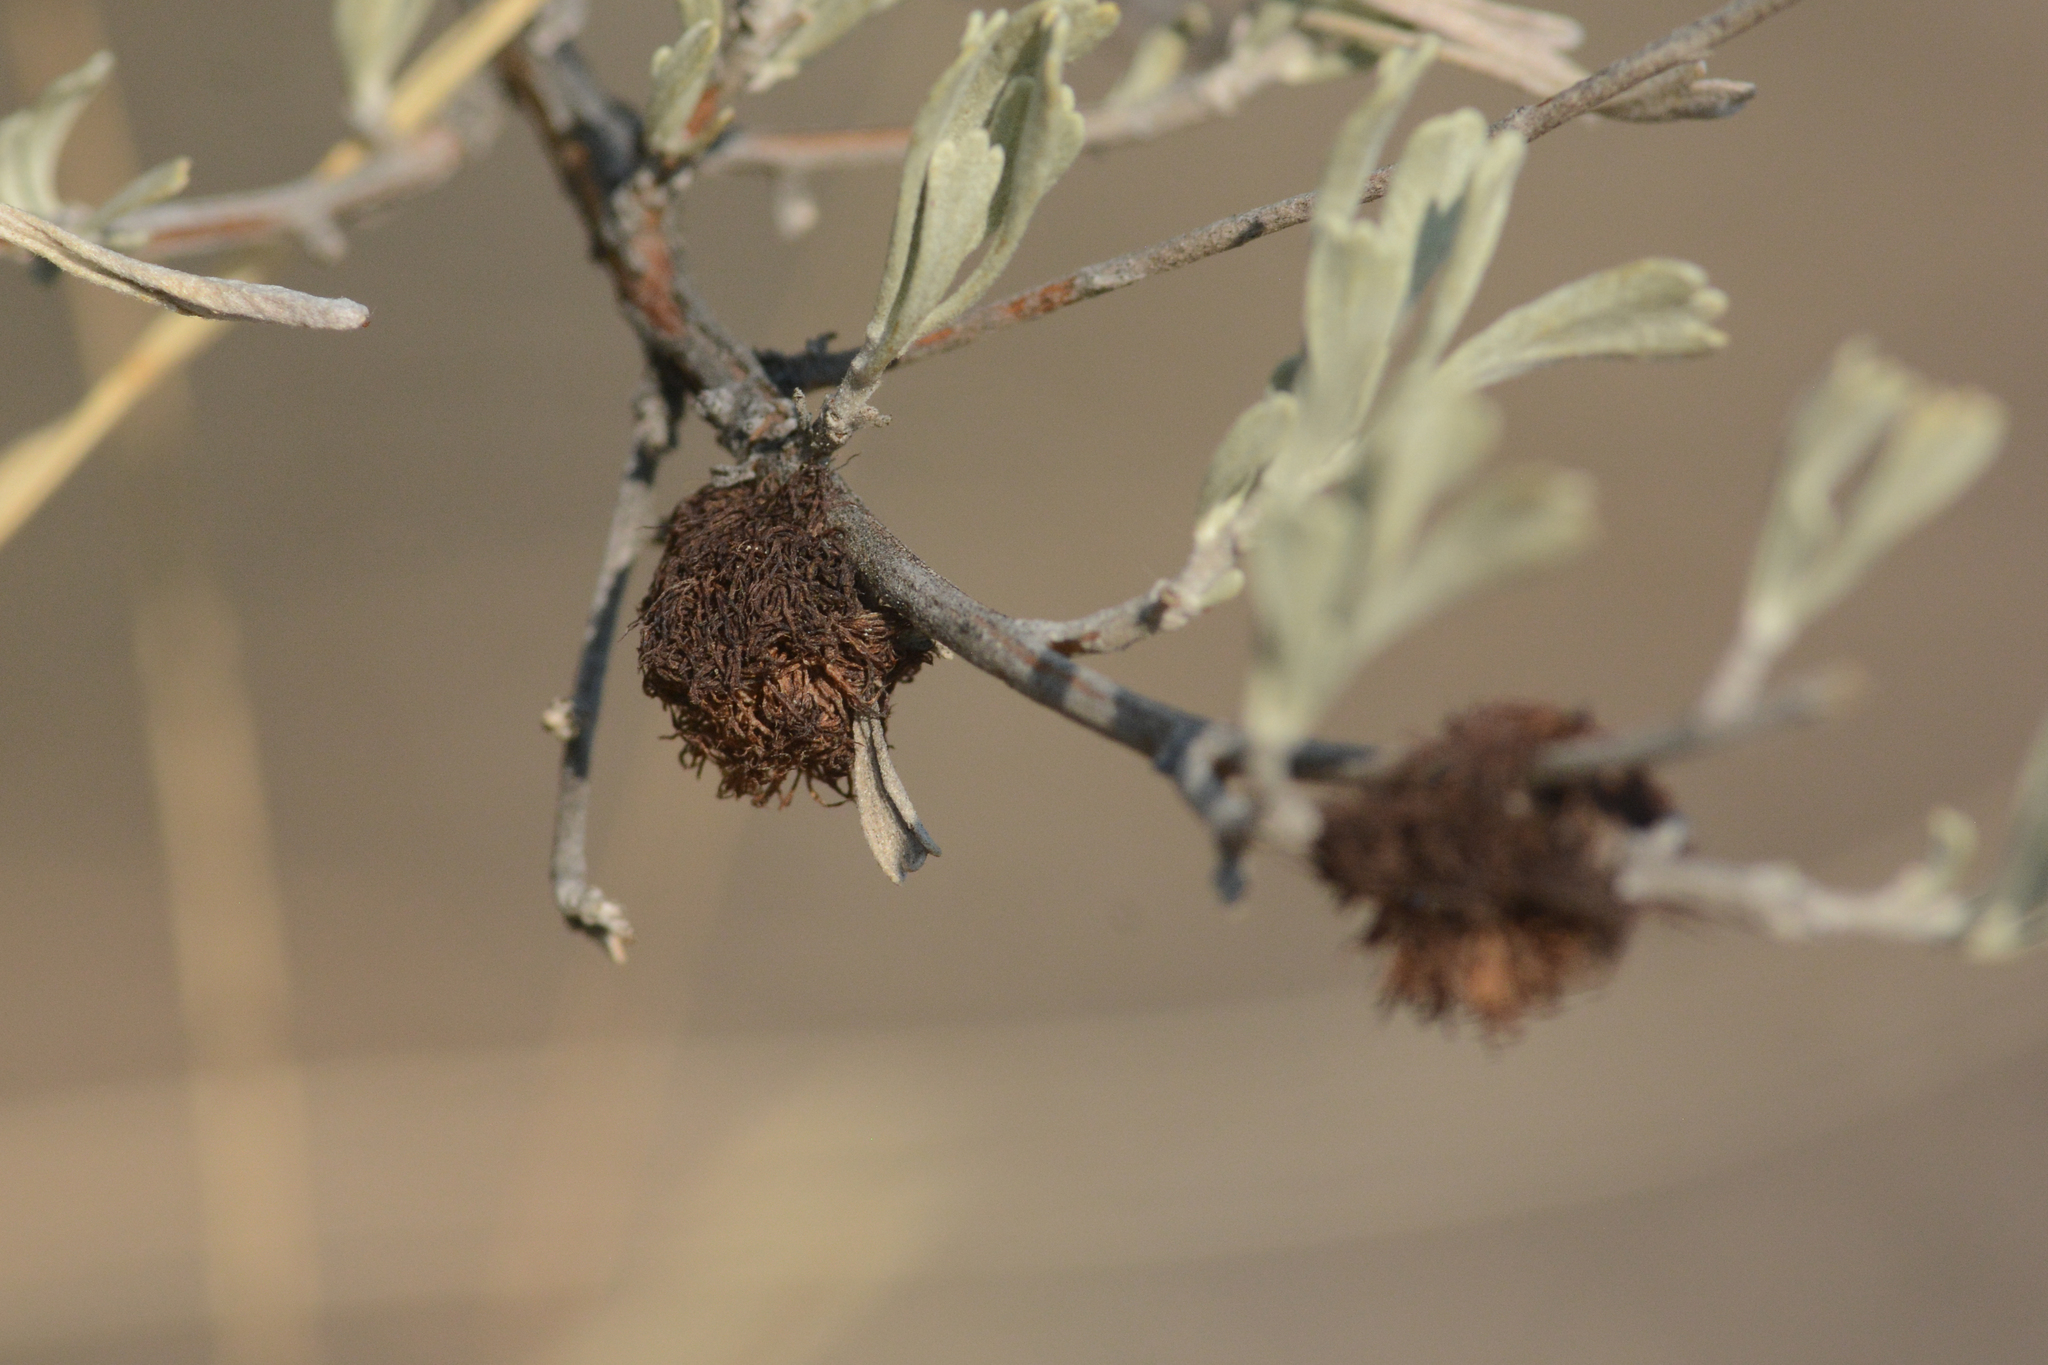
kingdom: Animalia
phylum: Arthropoda
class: Insecta
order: Diptera
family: Cecidomyiidae
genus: Rhopalomyia
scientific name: Rhopalomyia medusa
